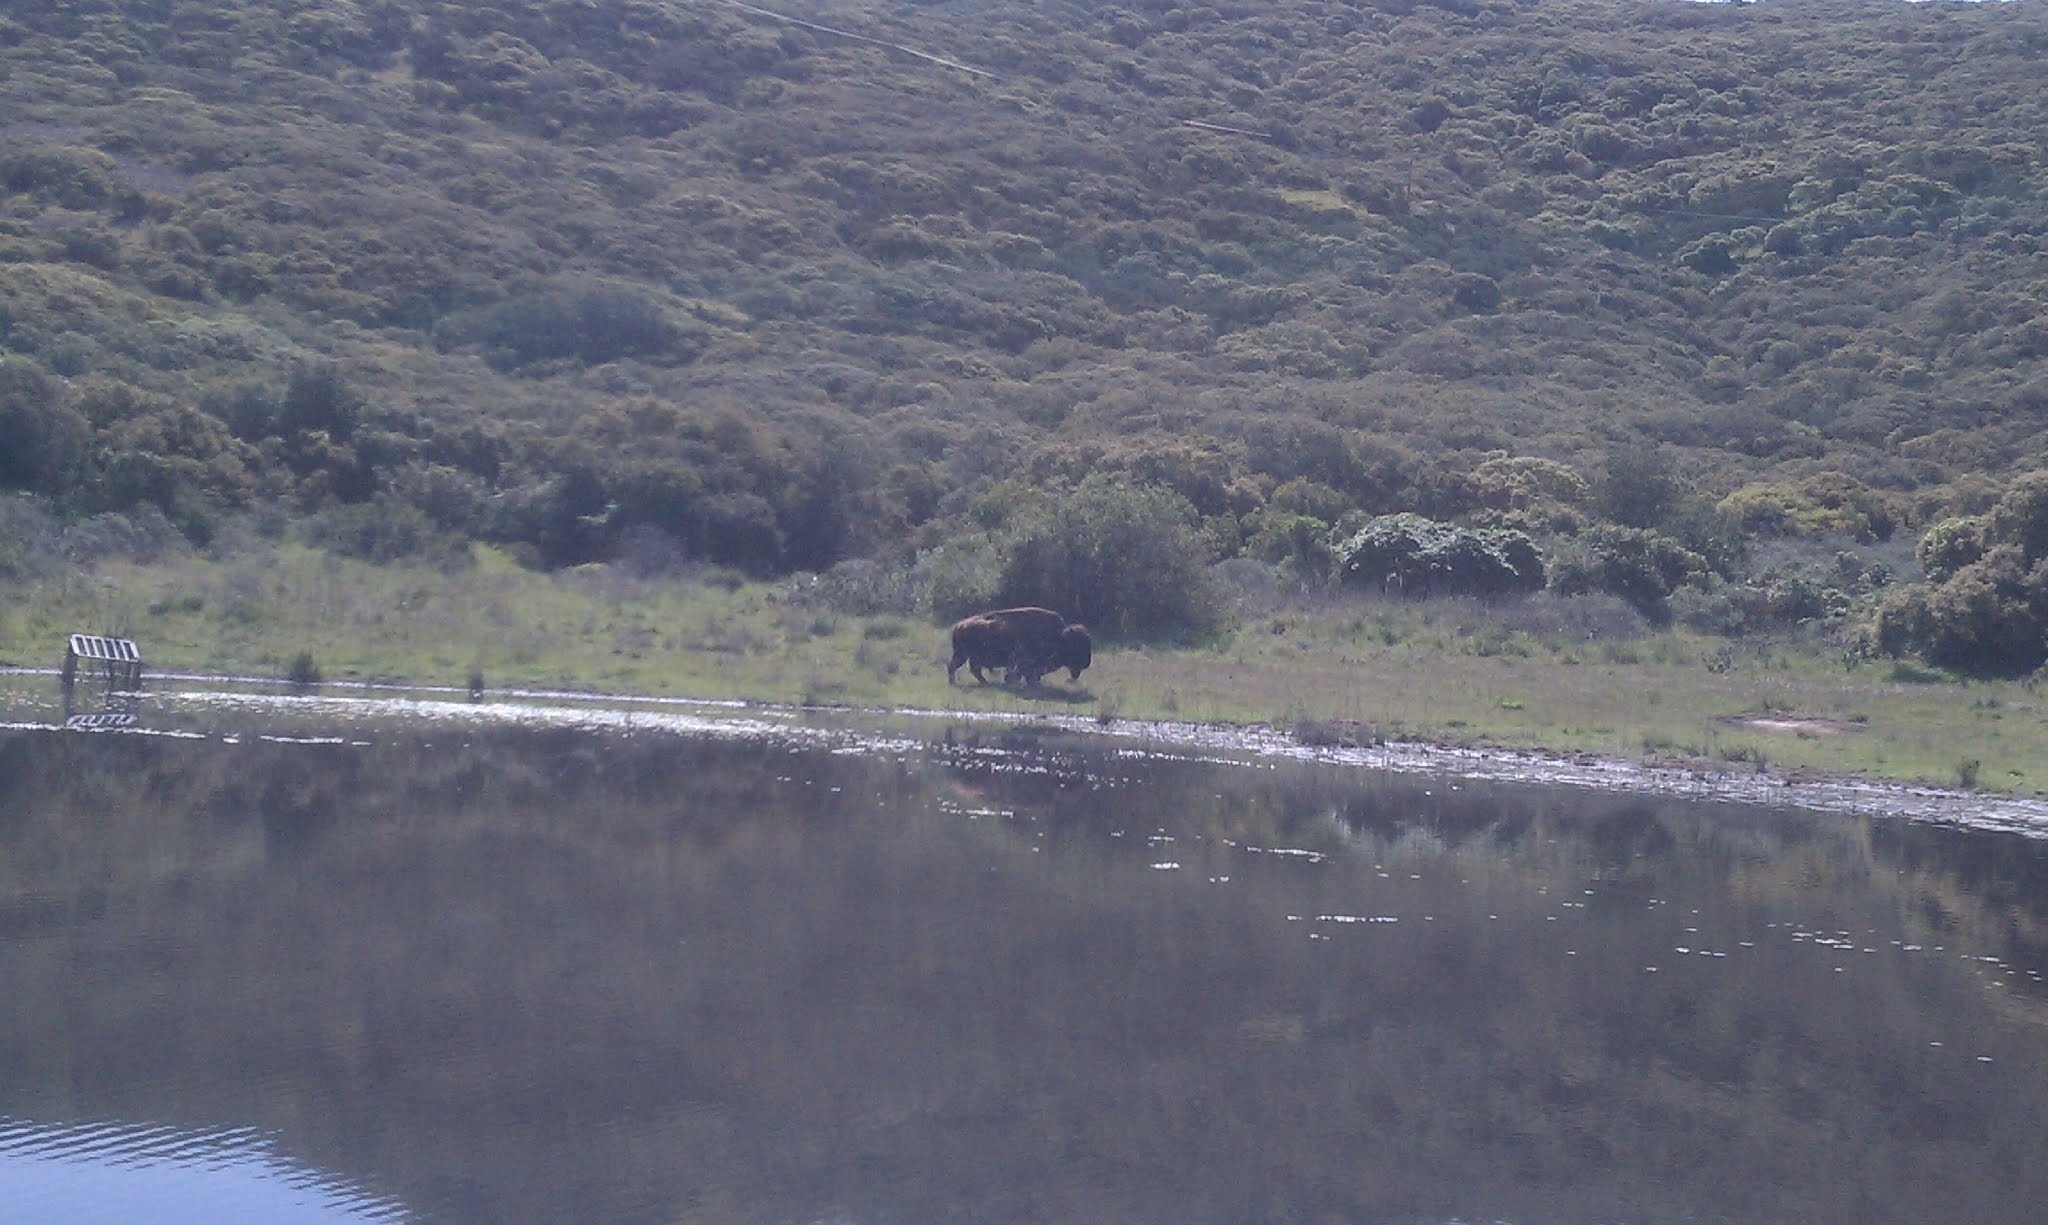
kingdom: Animalia
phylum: Chordata
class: Mammalia
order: Artiodactyla
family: Bovidae
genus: Bison
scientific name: Bison bison
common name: American bison
